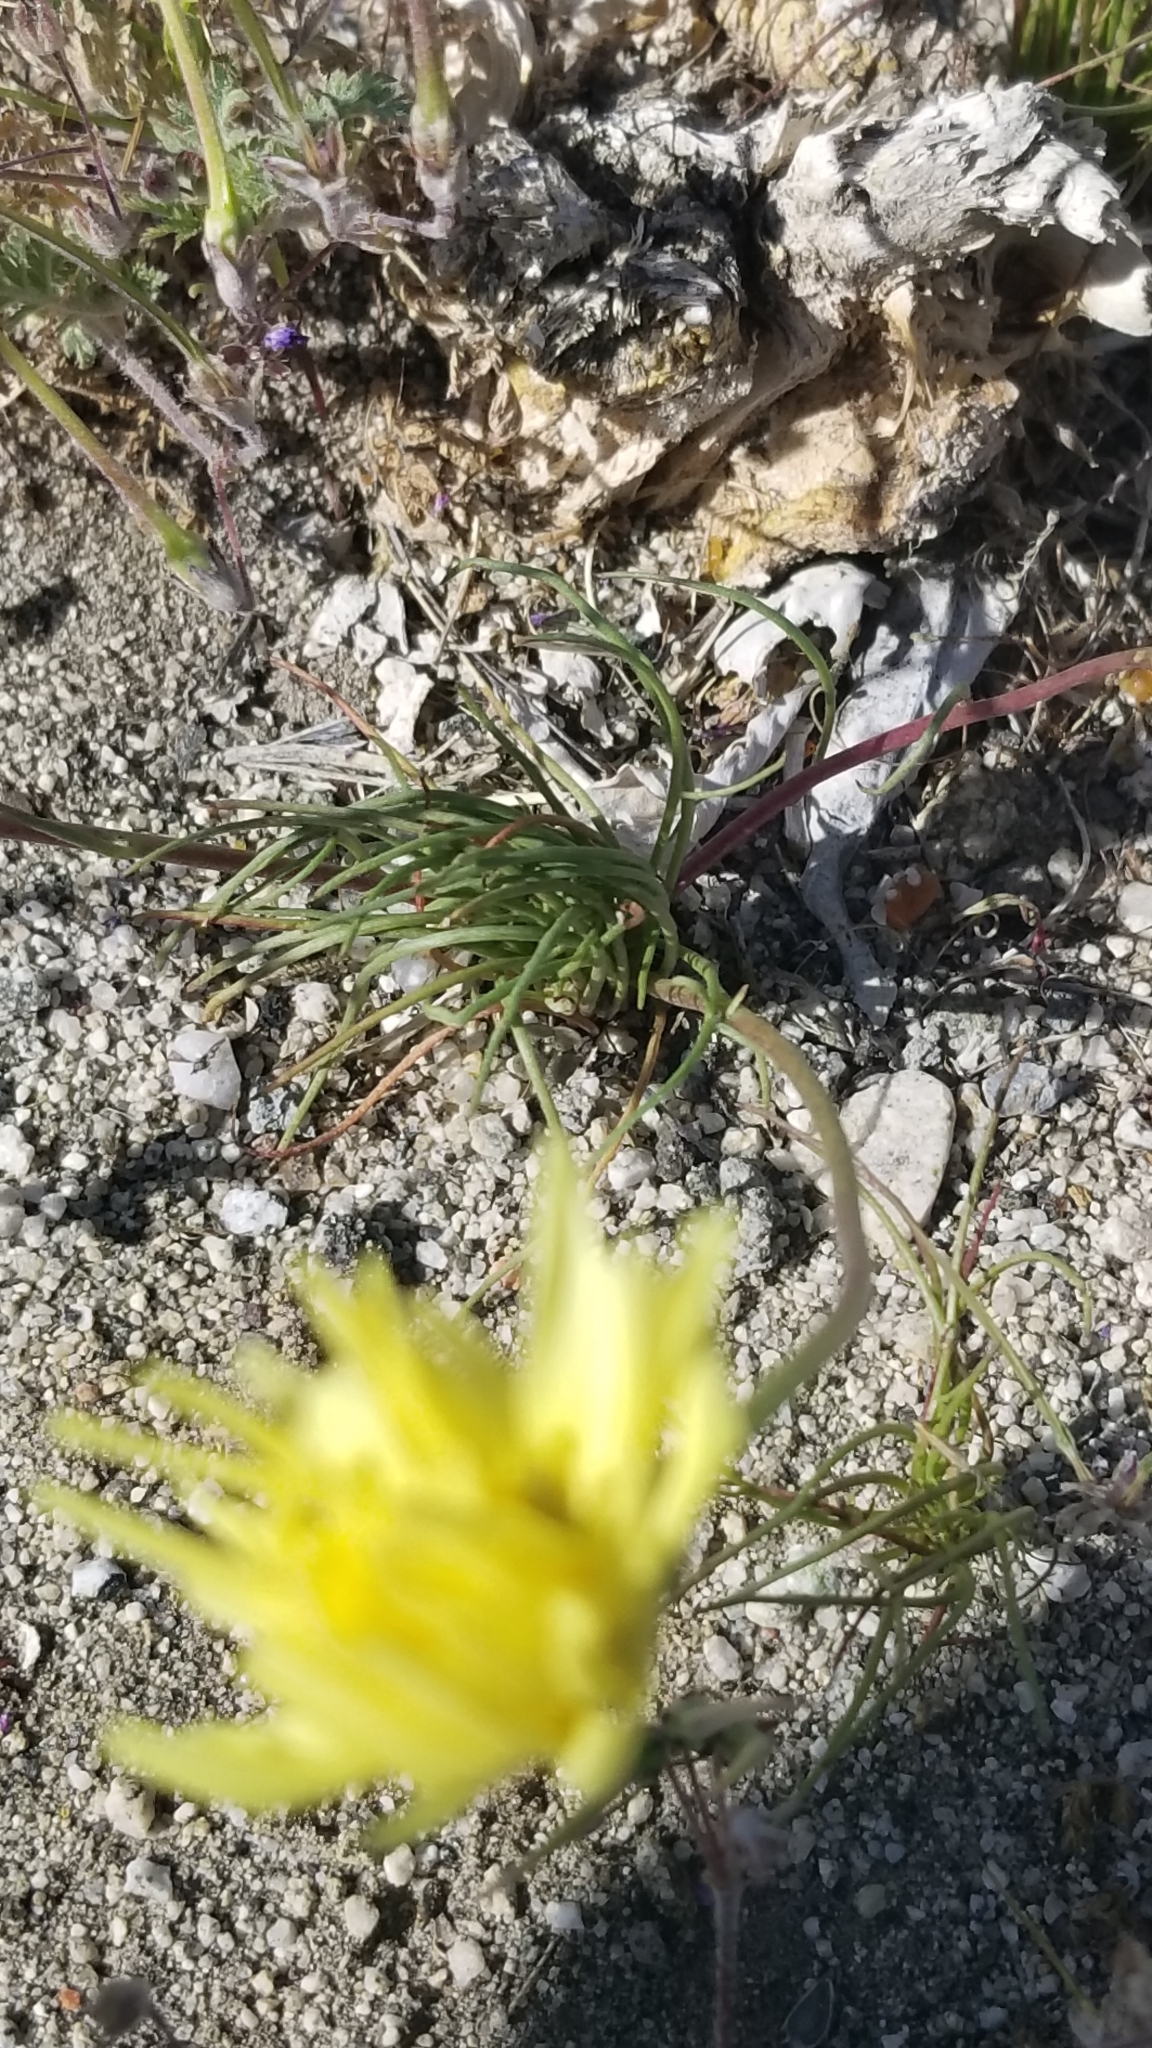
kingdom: Plantae
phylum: Tracheophyta
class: Magnoliopsida
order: Asterales
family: Asteraceae
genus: Malacothrix
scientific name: Malacothrix glabrata
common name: Smooth desert-dandelion
